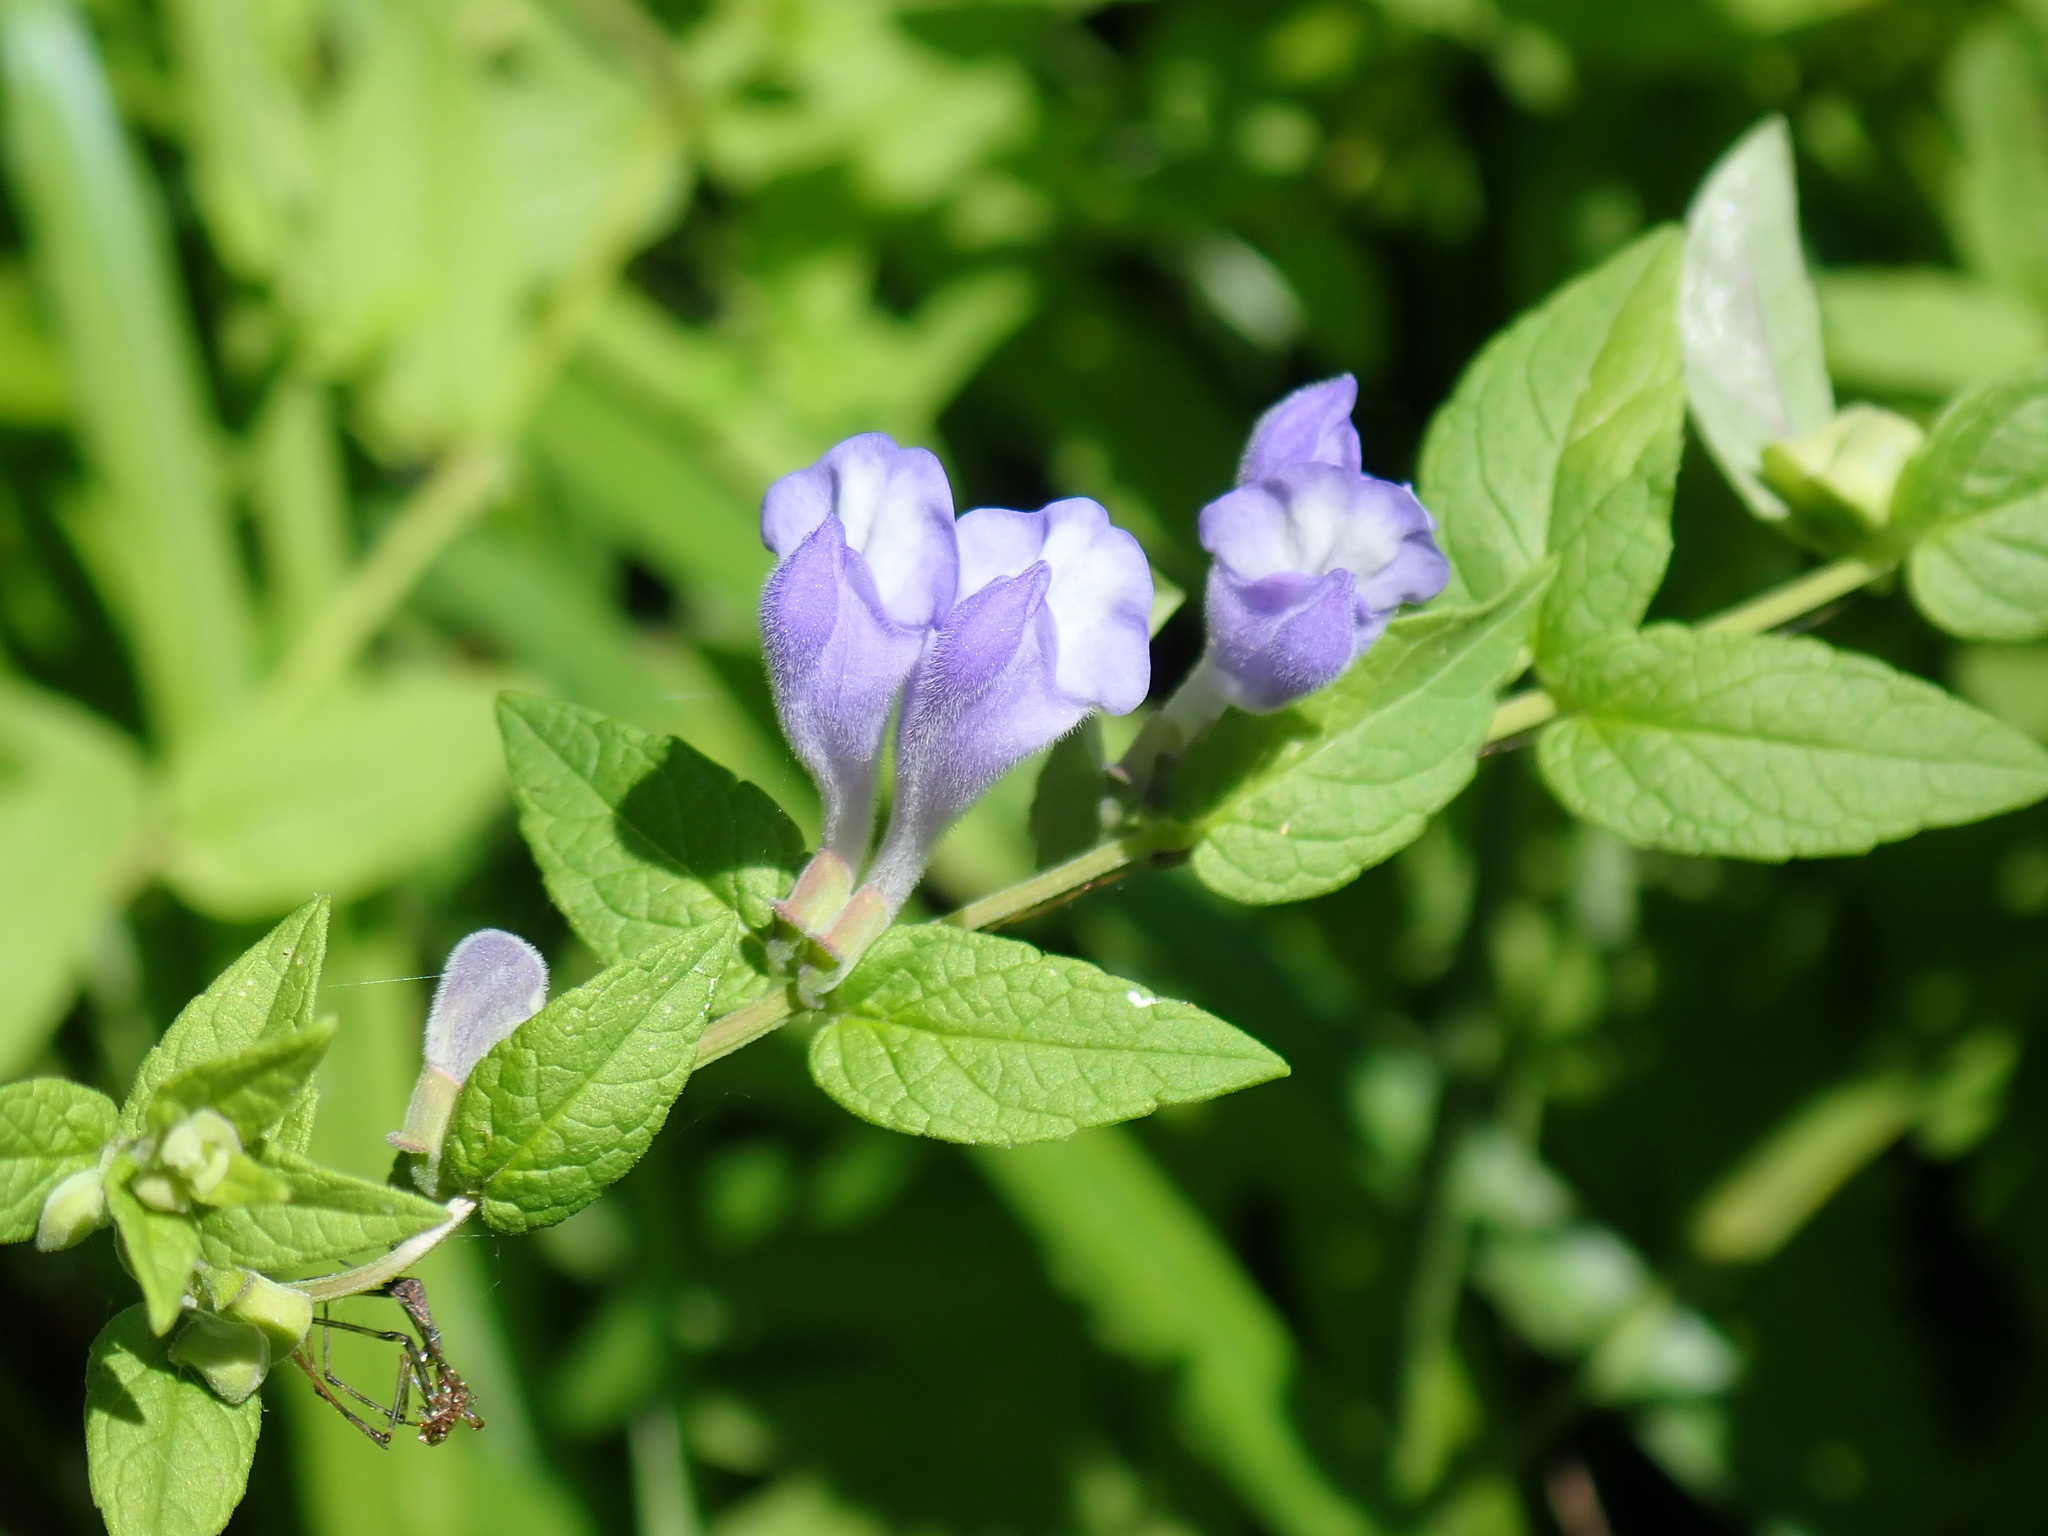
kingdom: Plantae
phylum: Tracheophyta
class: Magnoliopsida
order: Lamiales
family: Lamiaceae
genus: Scutellaria
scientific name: Scutellaria galericulata
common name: Skullcap
